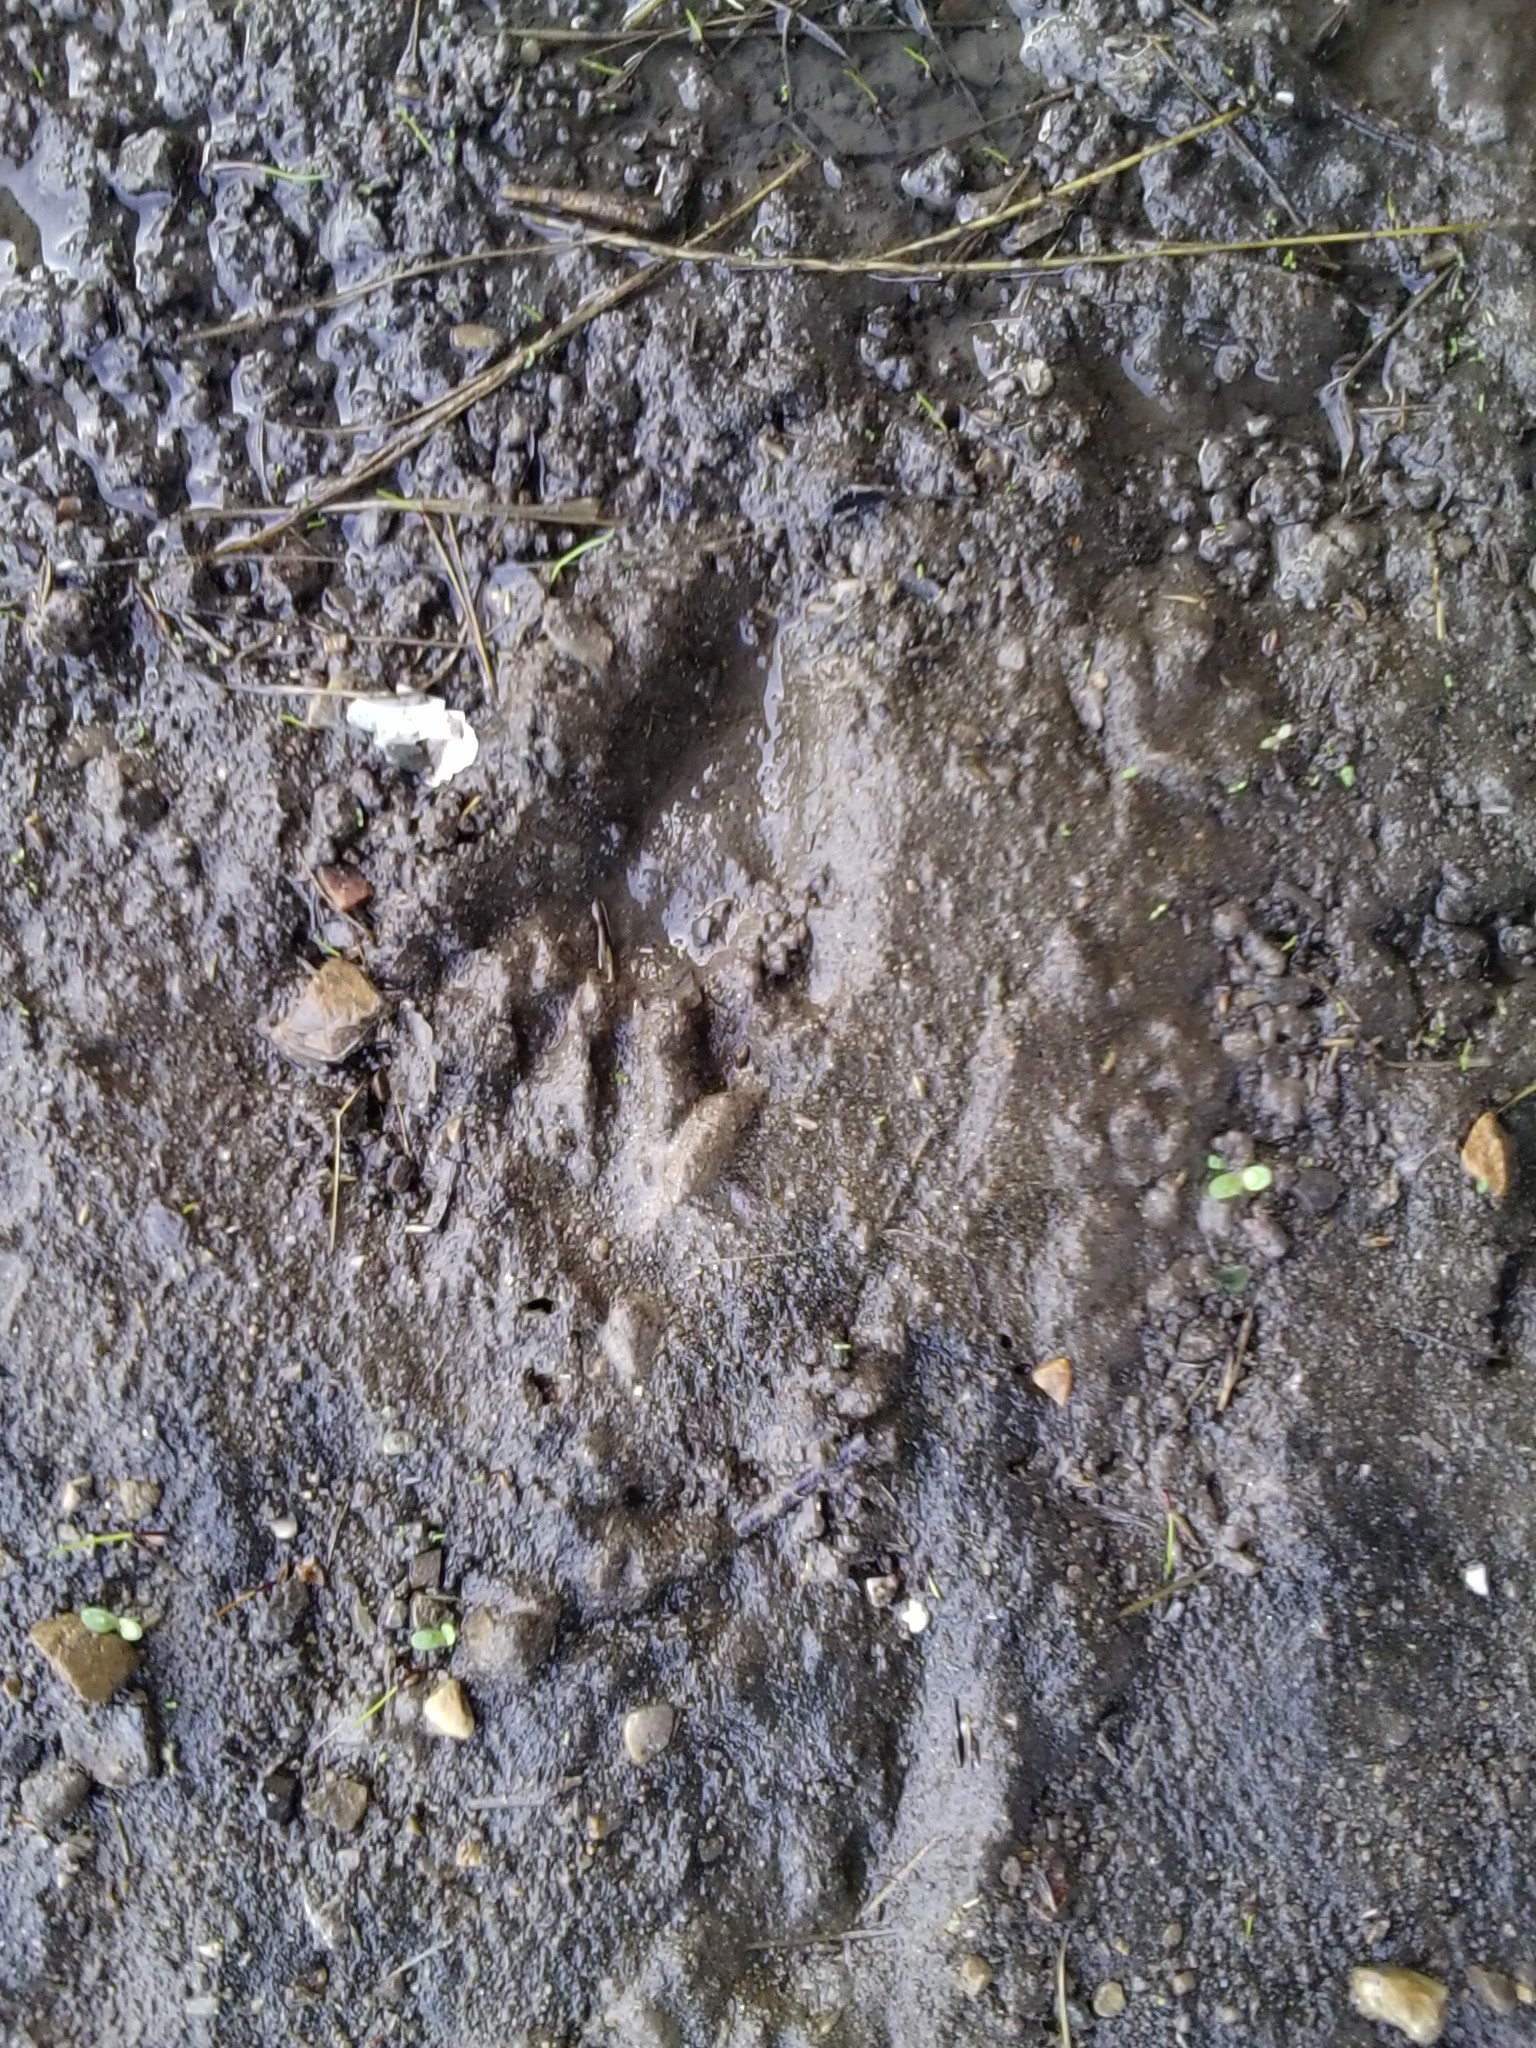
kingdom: Animalia
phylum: Chordata
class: Mammalia
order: Carnivora
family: Procyonidae
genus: Procyon
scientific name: Procyon lotor
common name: Raccoon
